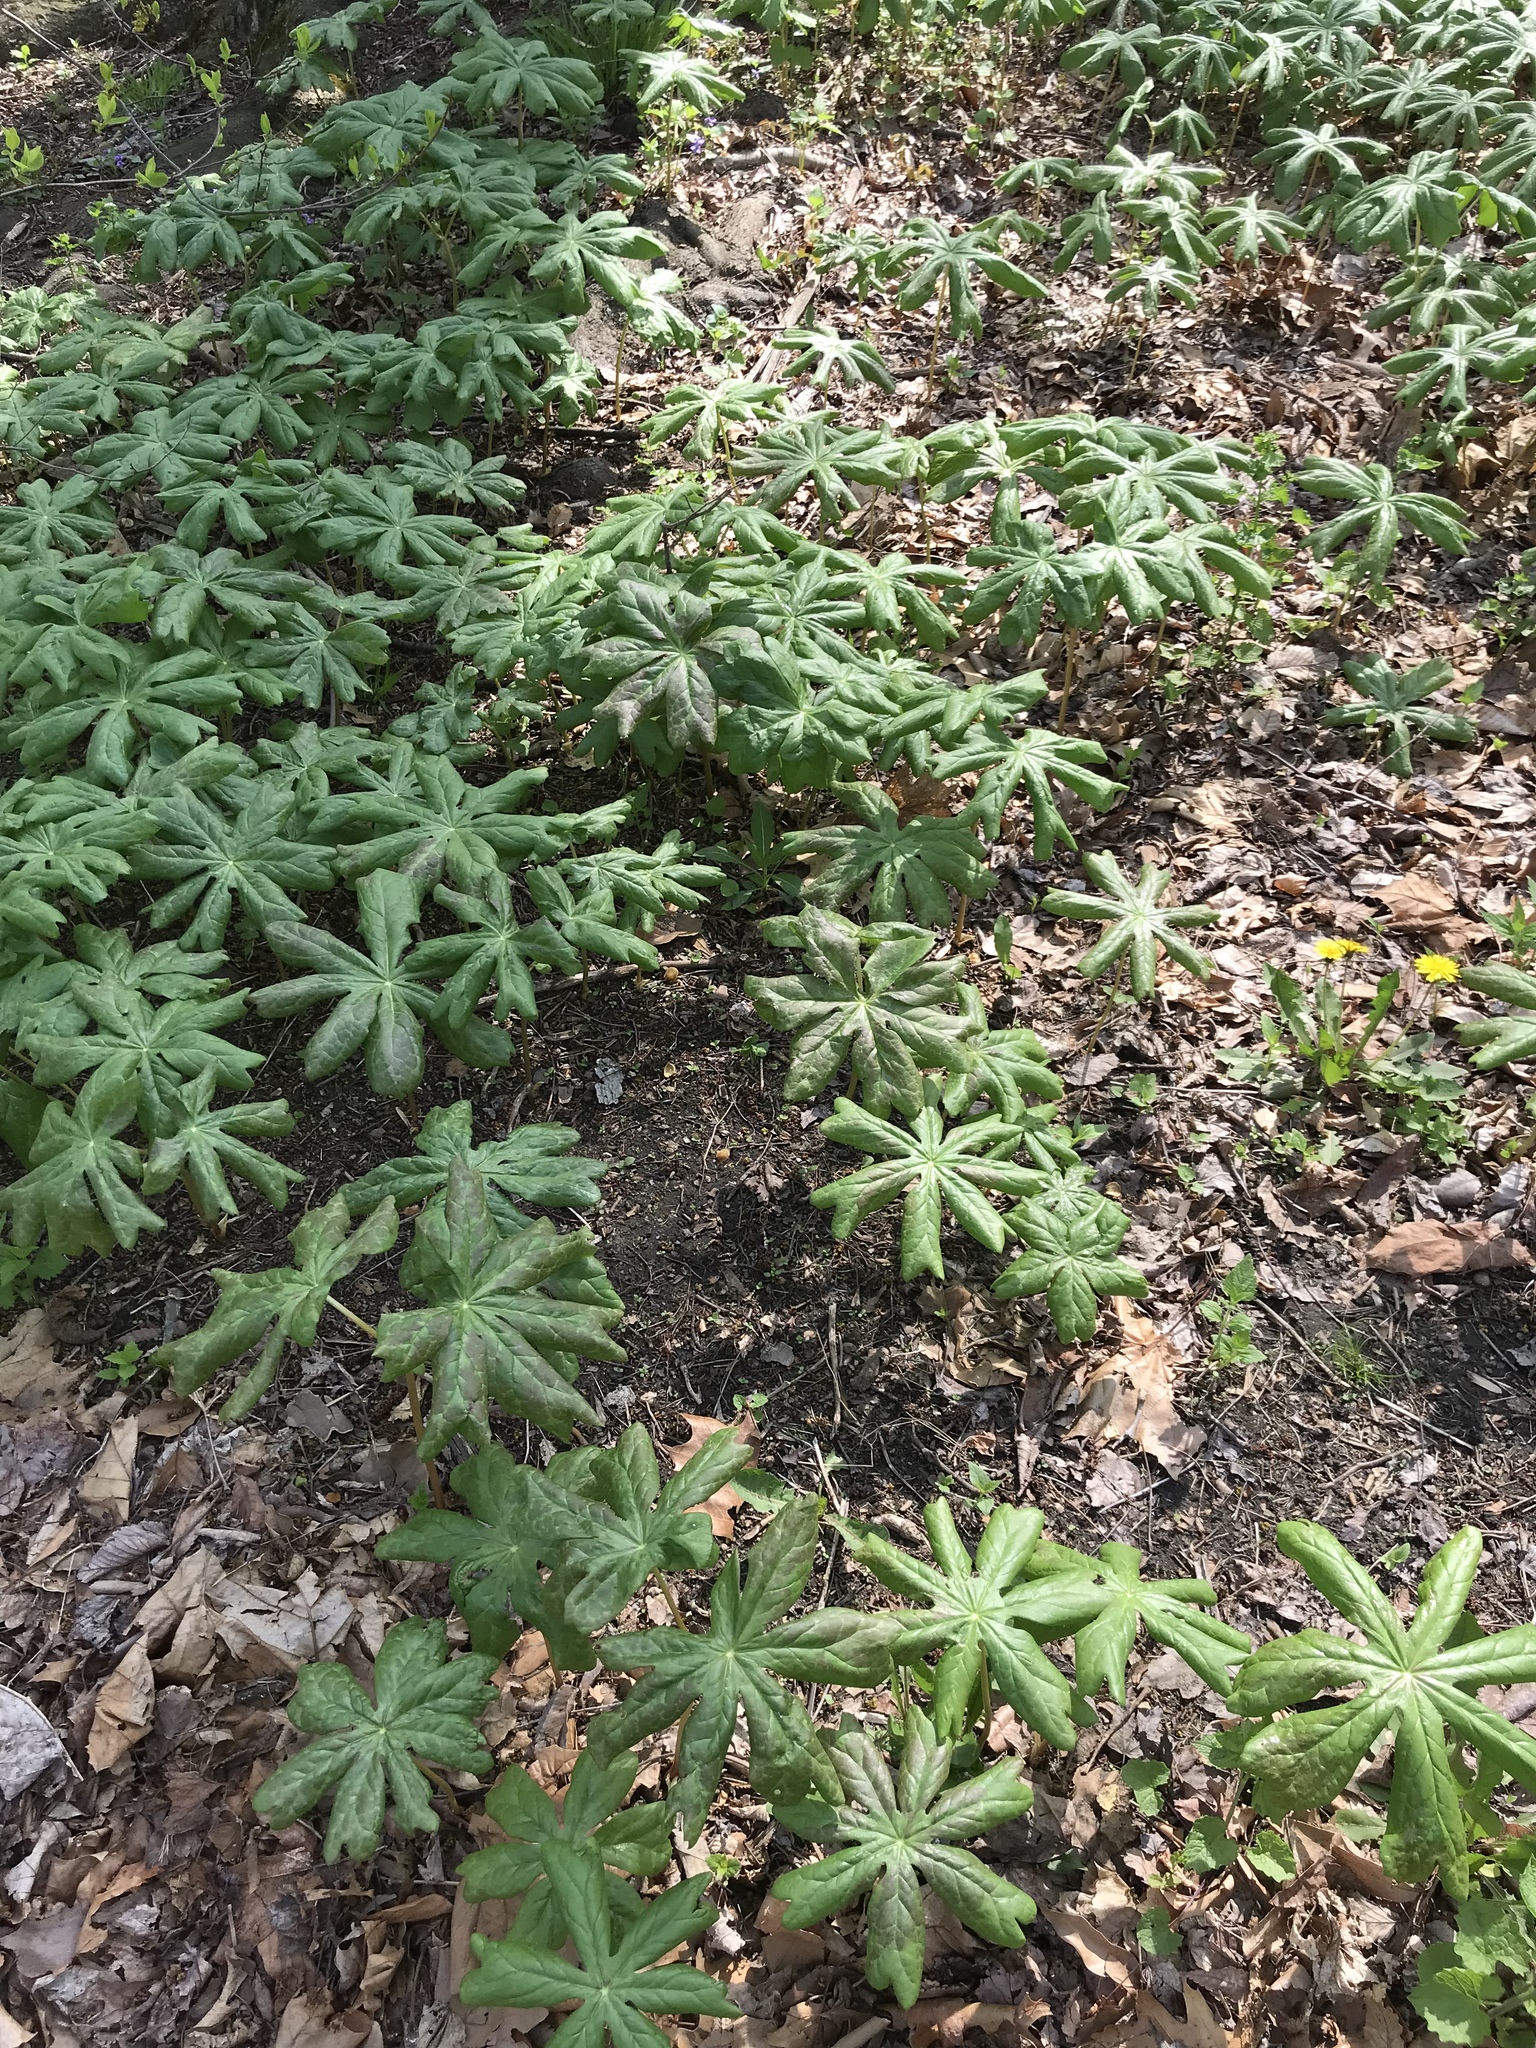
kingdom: Plantae
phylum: Tracheophyta
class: Magnoliopsida
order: Ranunculales
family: Berberidaceae
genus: Podophyllum
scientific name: Podophyllum peltatum
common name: Wild mandrake
